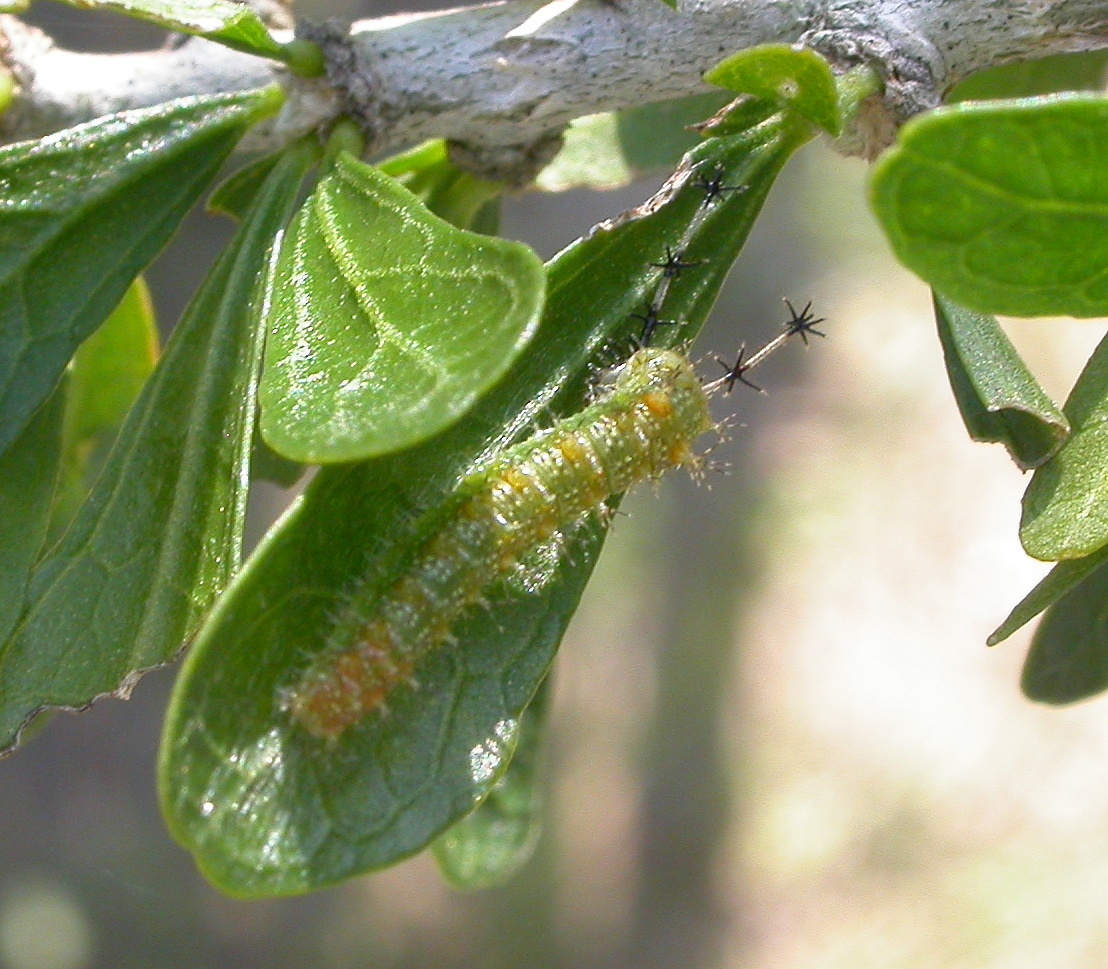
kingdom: Animalia
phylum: Arthropoda
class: Insecta
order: Lepidoptera
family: Nymphalidae
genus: Myscelia
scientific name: Myscelia ethusa
